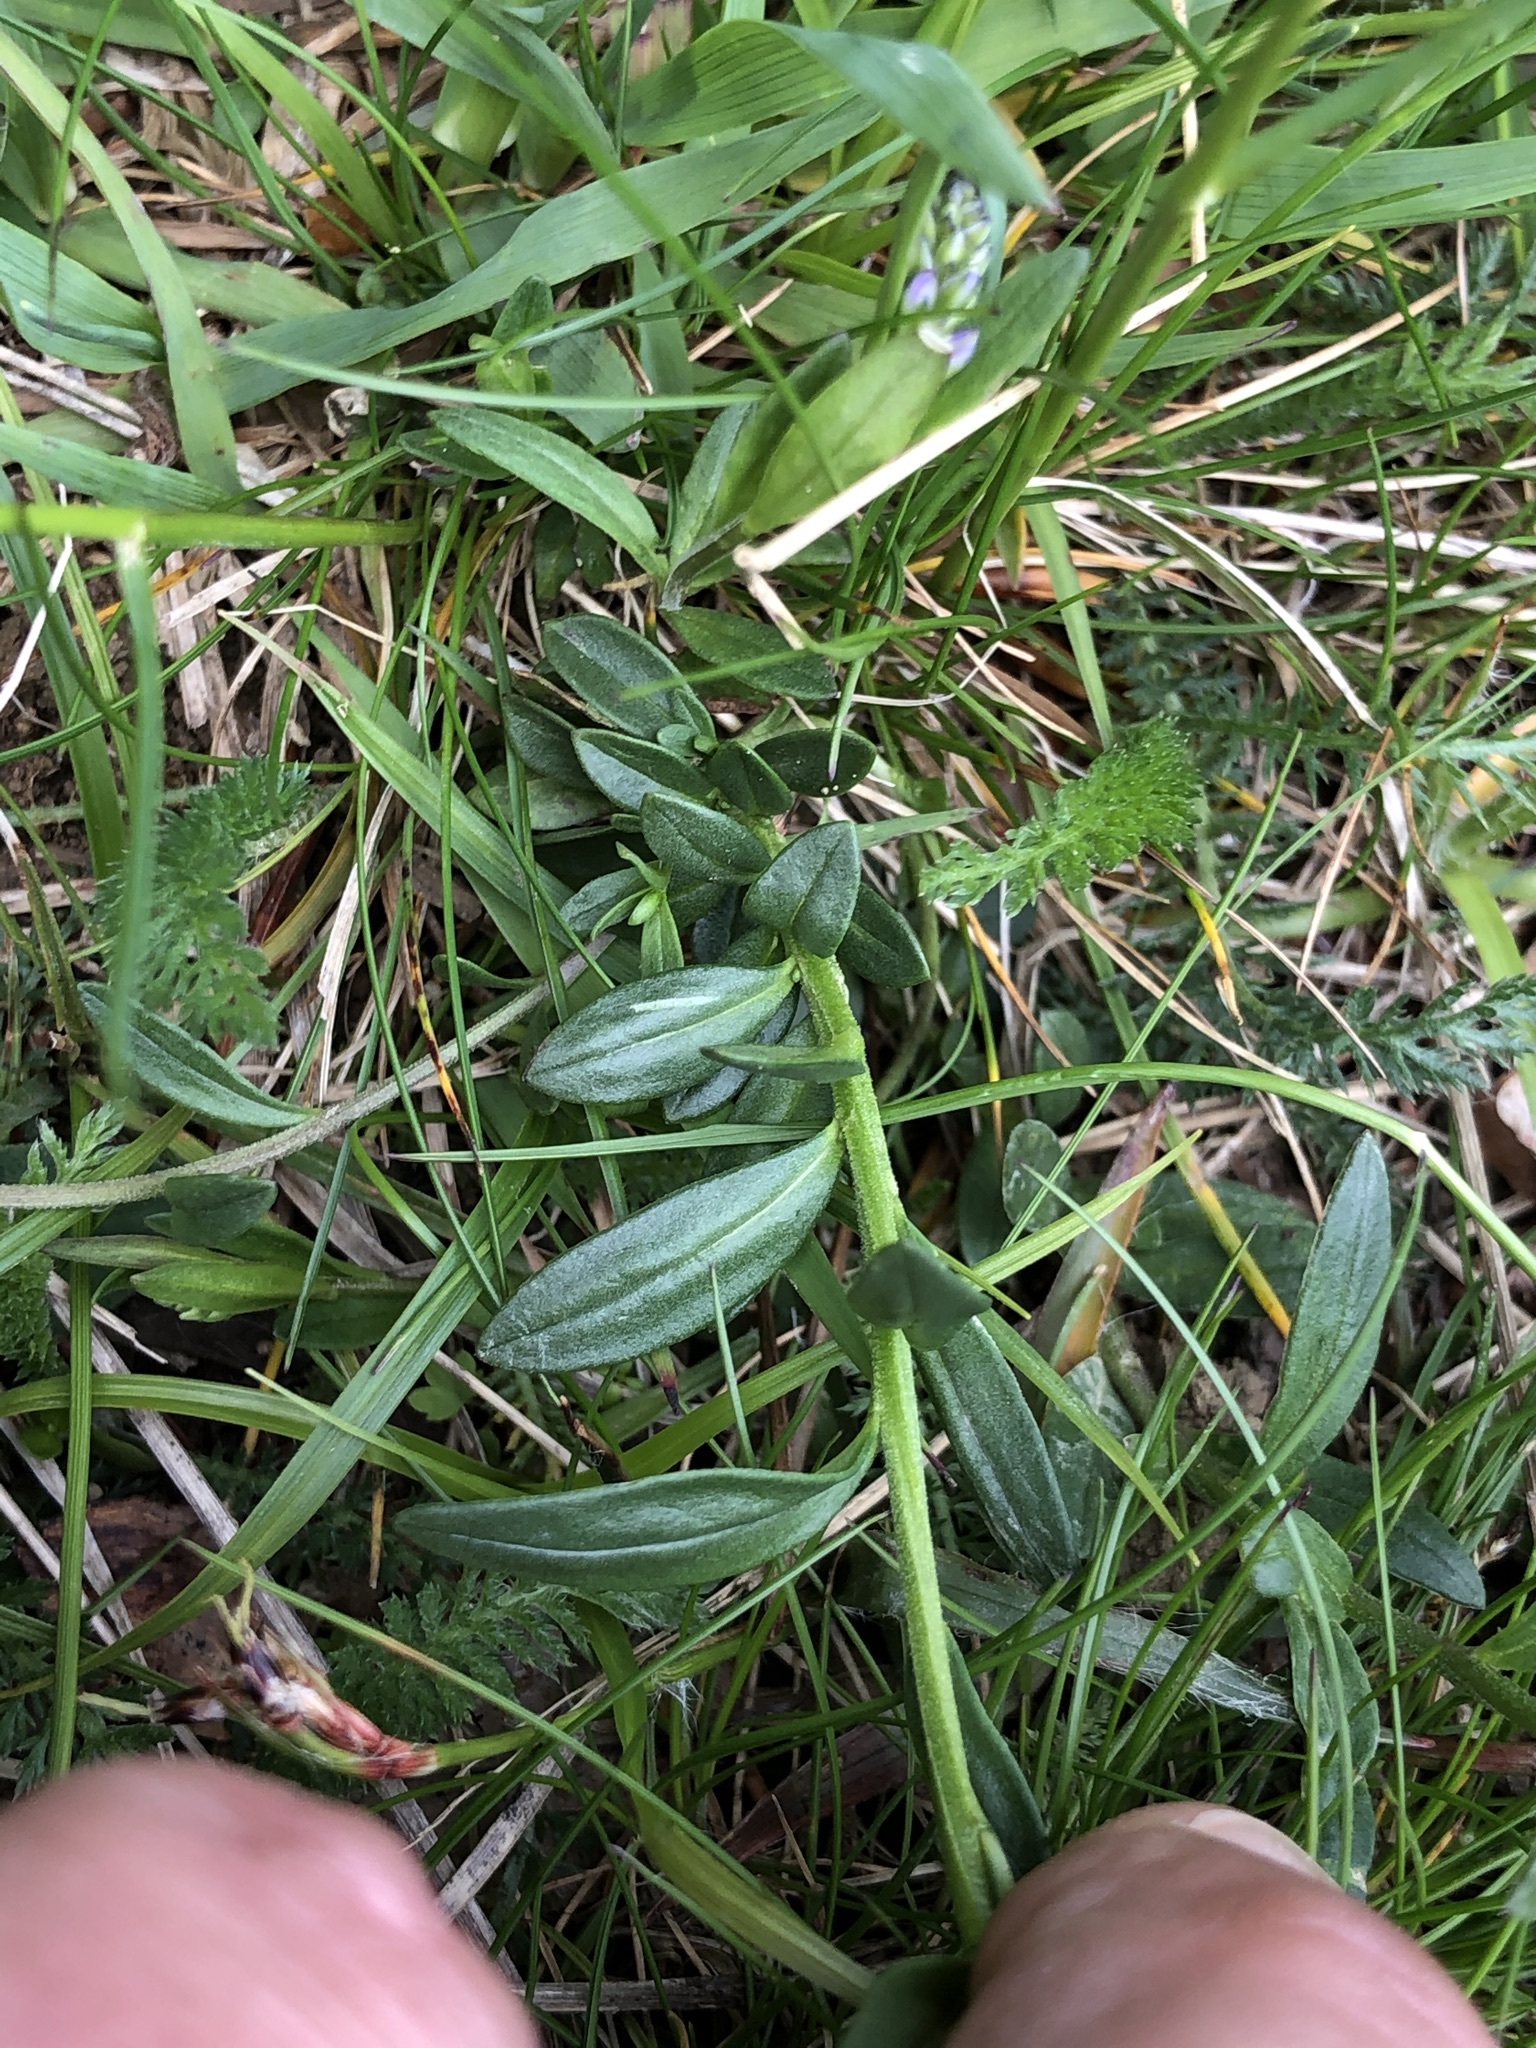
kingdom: Plantae
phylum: Tracheophyta
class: Magnoliopsida
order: Fabales
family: Polygalaceae
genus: Polygala
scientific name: Polygala vulgaris
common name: Common milkwort
